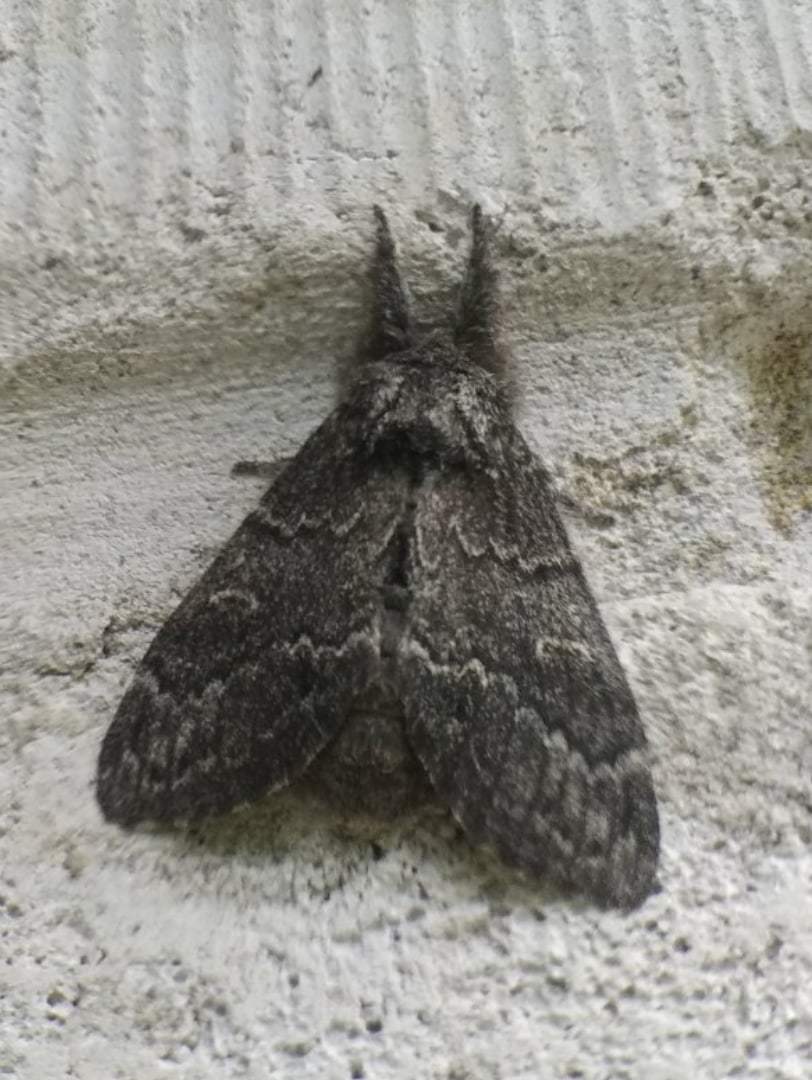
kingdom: Animalia
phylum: Arthropoda
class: Insecta
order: Lepidoptera
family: Notodontidae
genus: Notodonta
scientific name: Notodonta torva
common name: Large dark prominent
